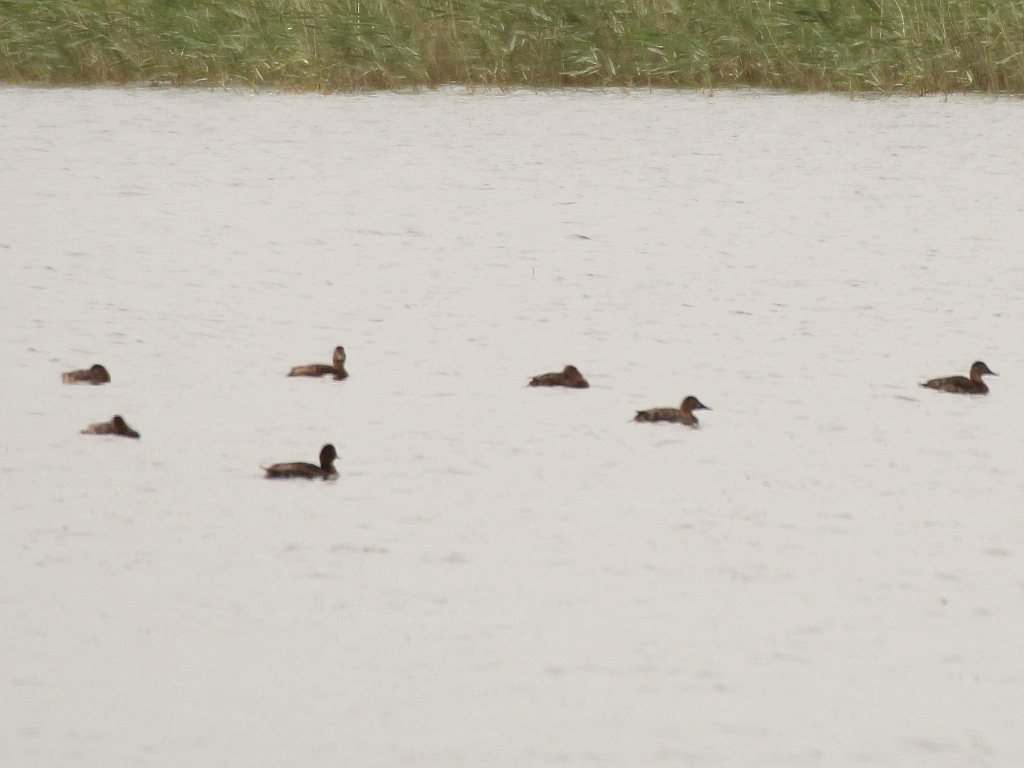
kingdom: Animalia
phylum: Chordata
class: Aves
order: Anseriformes
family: Anatidae
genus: Aythya
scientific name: Aythya ferina
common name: Common pochard
